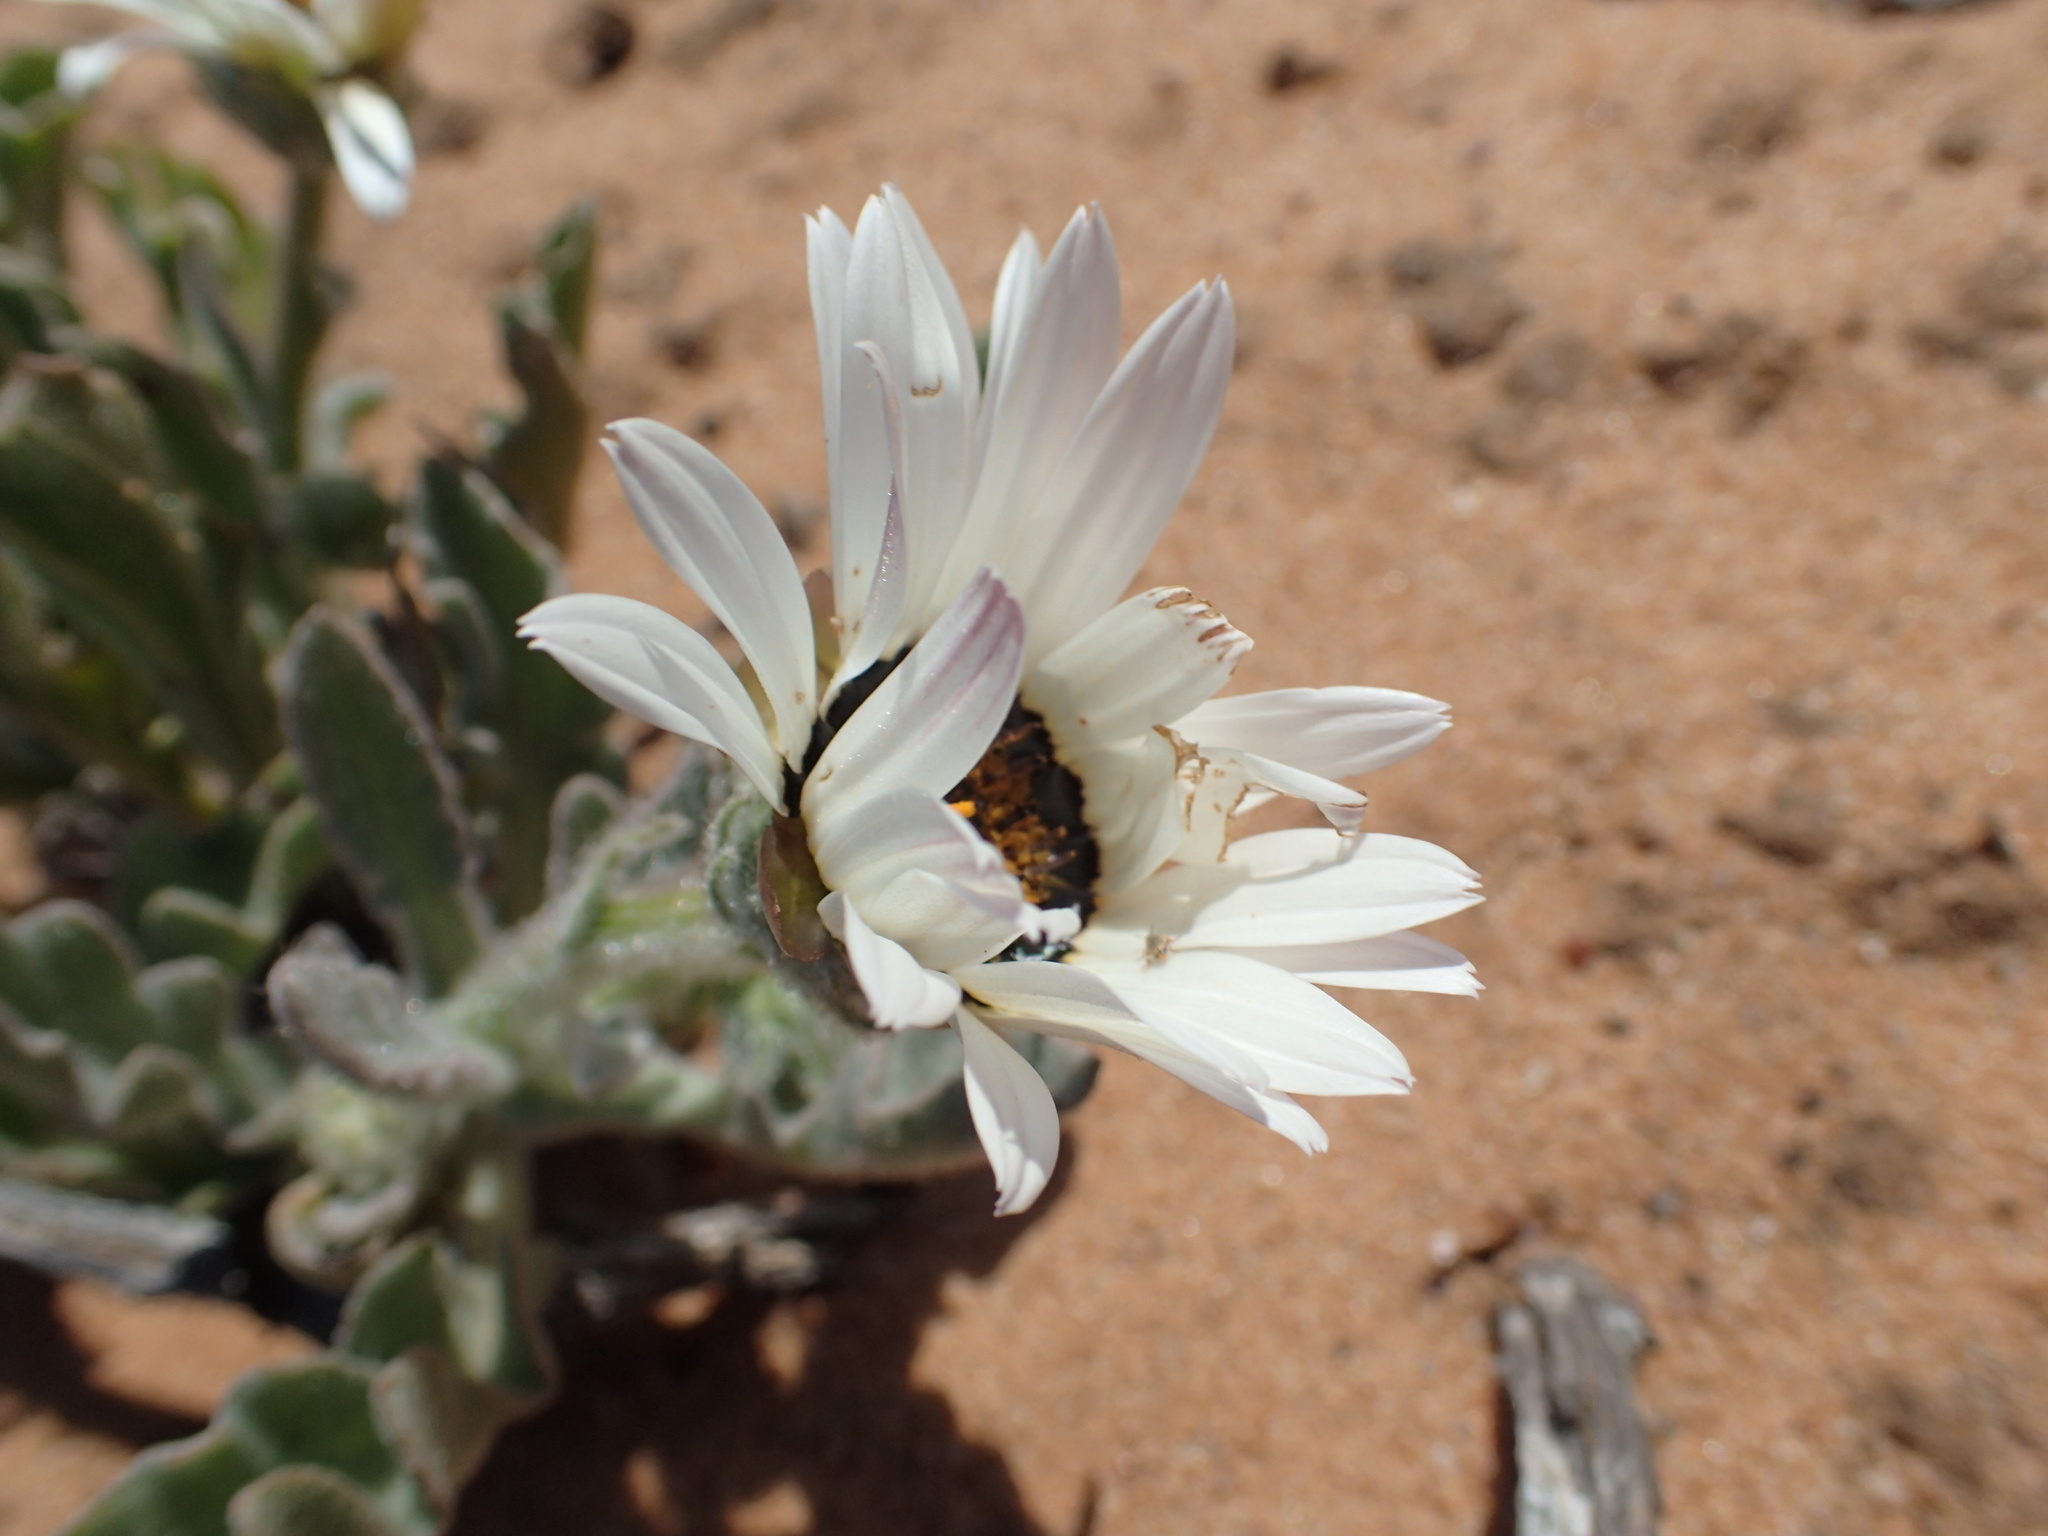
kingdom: Plantae
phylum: Tracheophyta
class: Magnoliopsida
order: Asterales
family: Asteraceae
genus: Arctotis
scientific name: Arctotis decurrens
